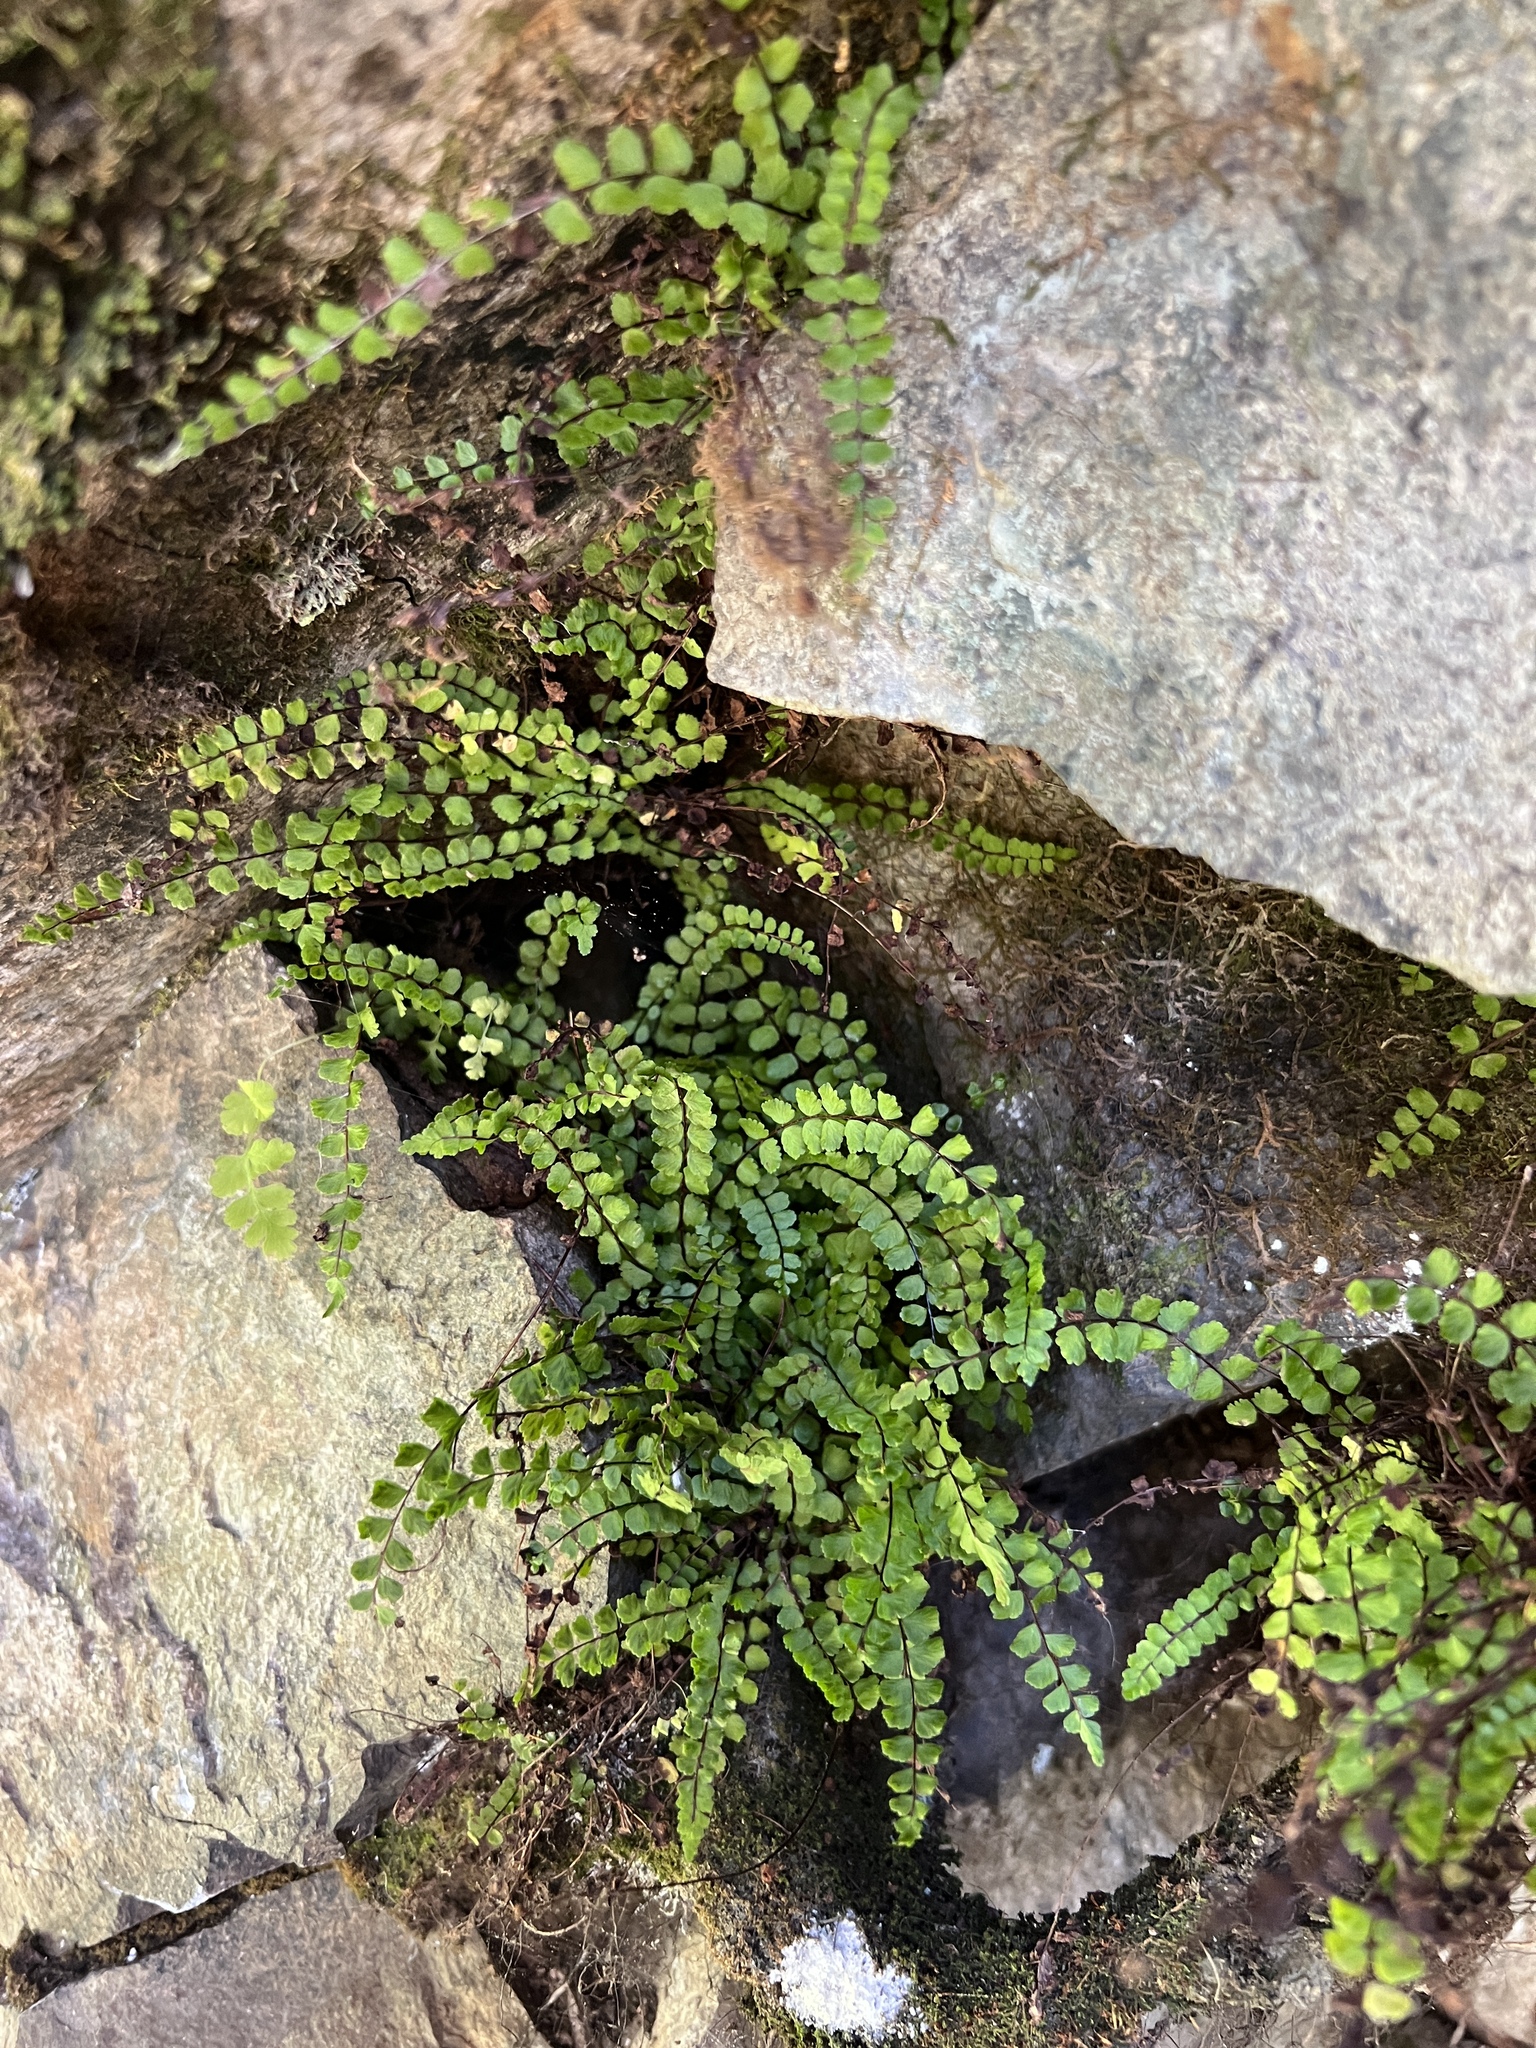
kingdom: Plantae
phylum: Tracheophyta
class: Polypodiopsida
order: Polypodiales
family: Aspleniaceae
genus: Asplenium
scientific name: Asplenium trichomanes
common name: Maidenhair spleenwort
